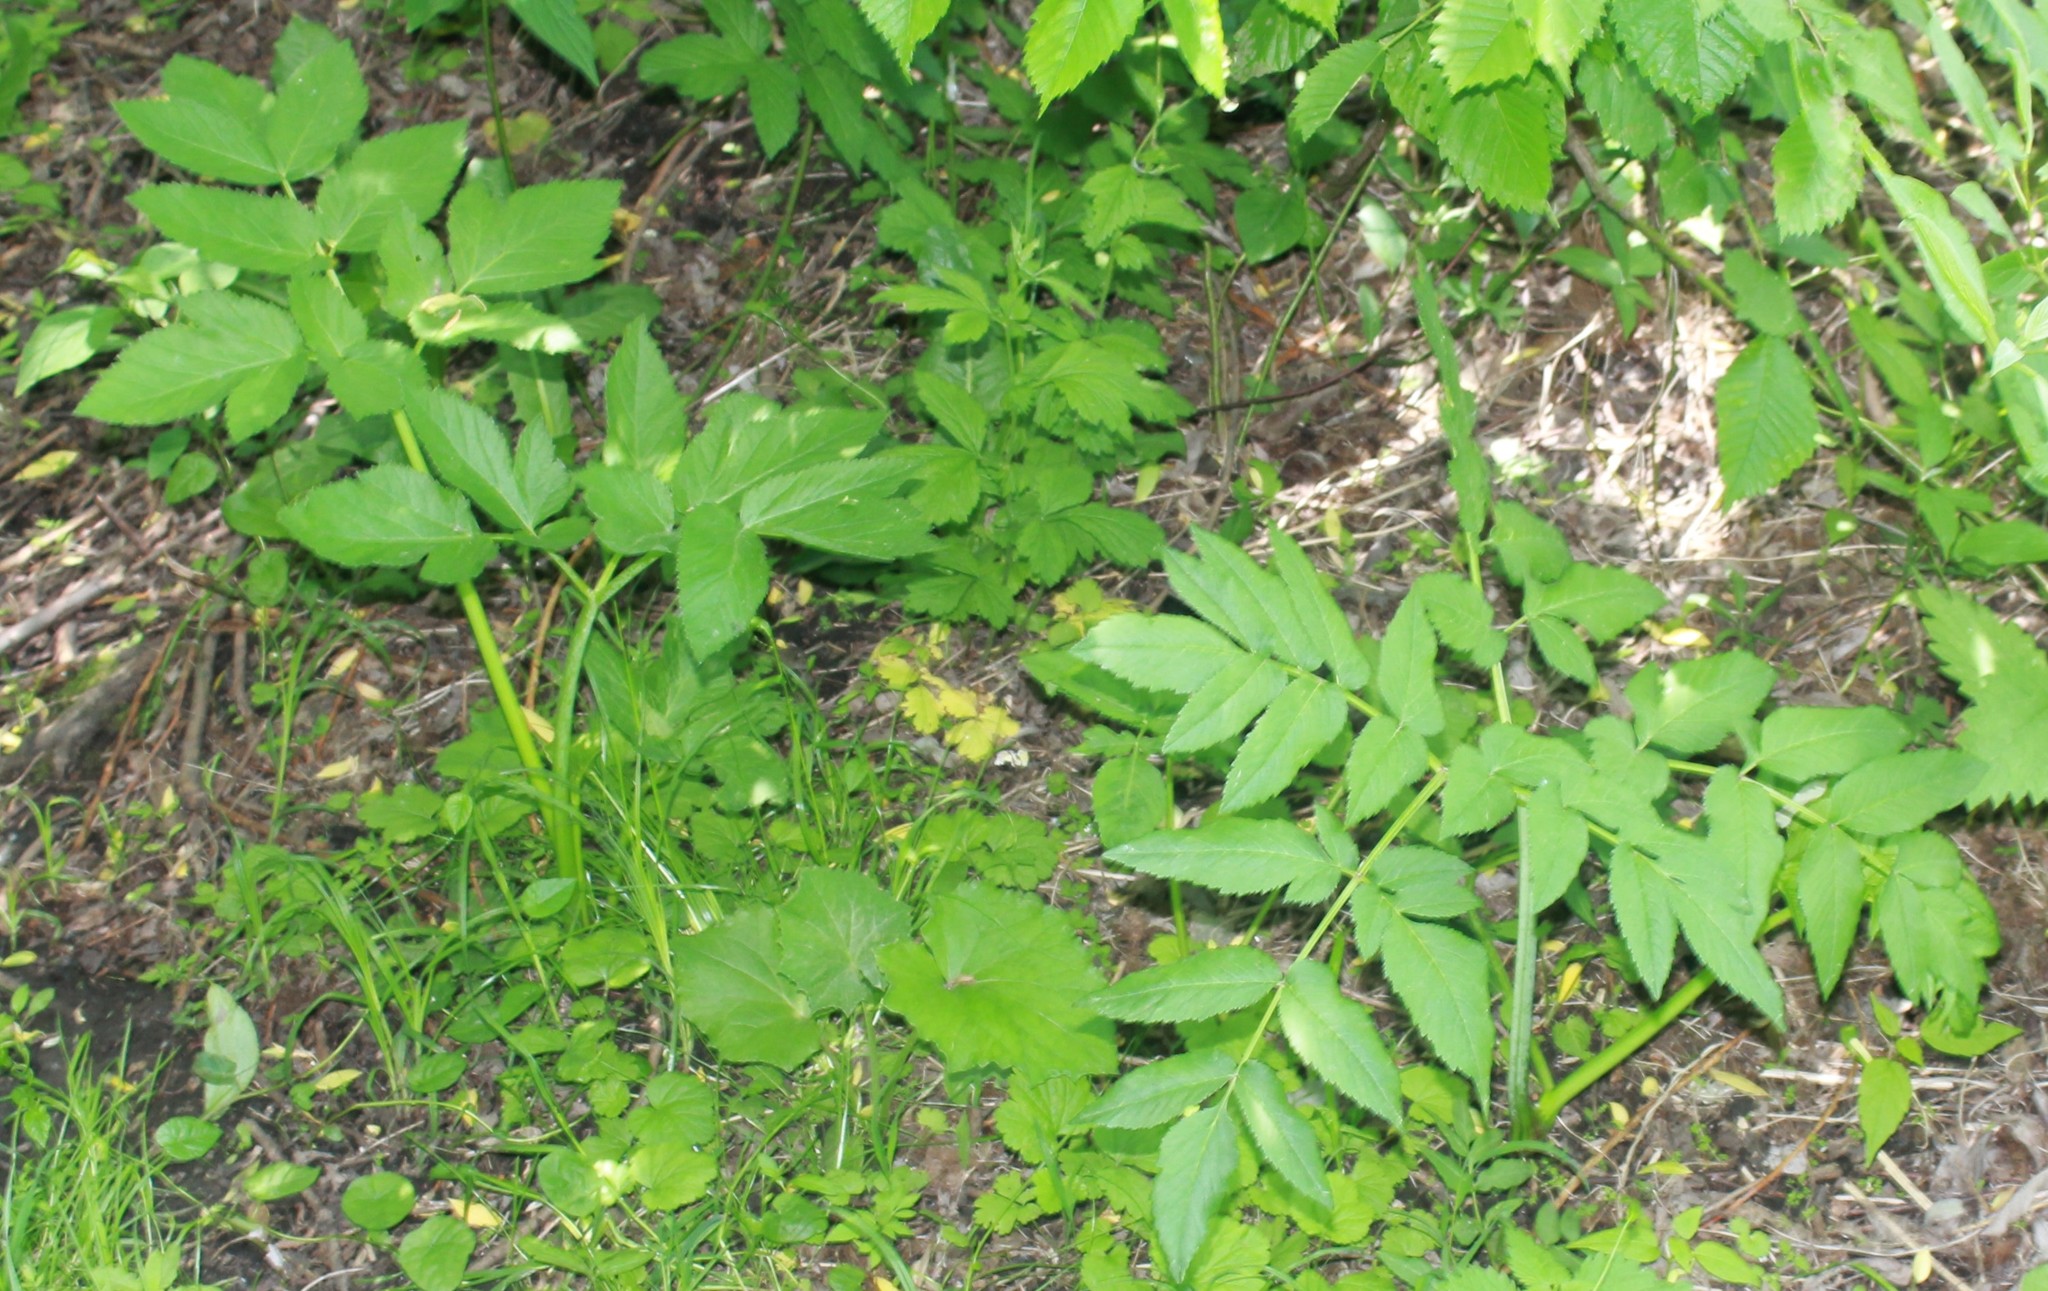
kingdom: Plantae
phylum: Tracheophyta
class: Magnoliopsida
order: Apiales
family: Apiaceae
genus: Angelica
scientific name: Angelica sylvestris
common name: Wild angelica
